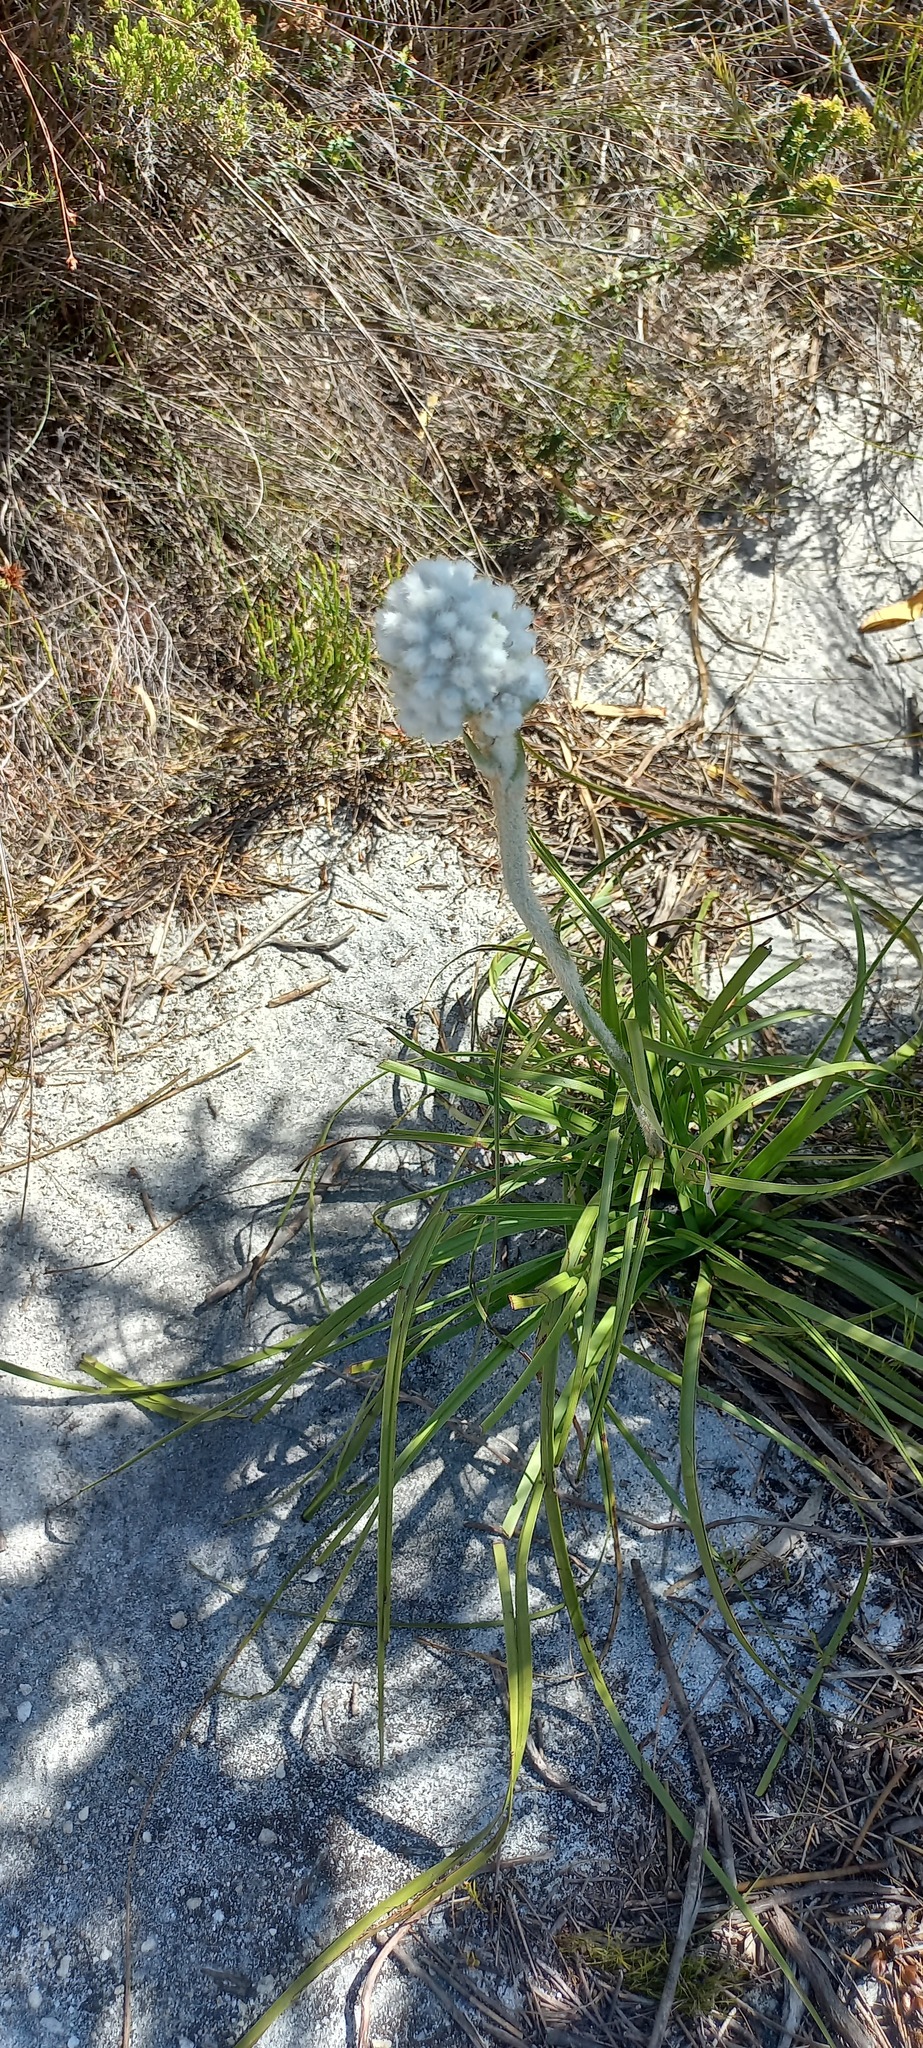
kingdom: Plantae
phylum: Tracheophyta
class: Liliopsida
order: Asparagales
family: Lanariaceae
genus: Lanaria
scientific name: Lanaria lanata
